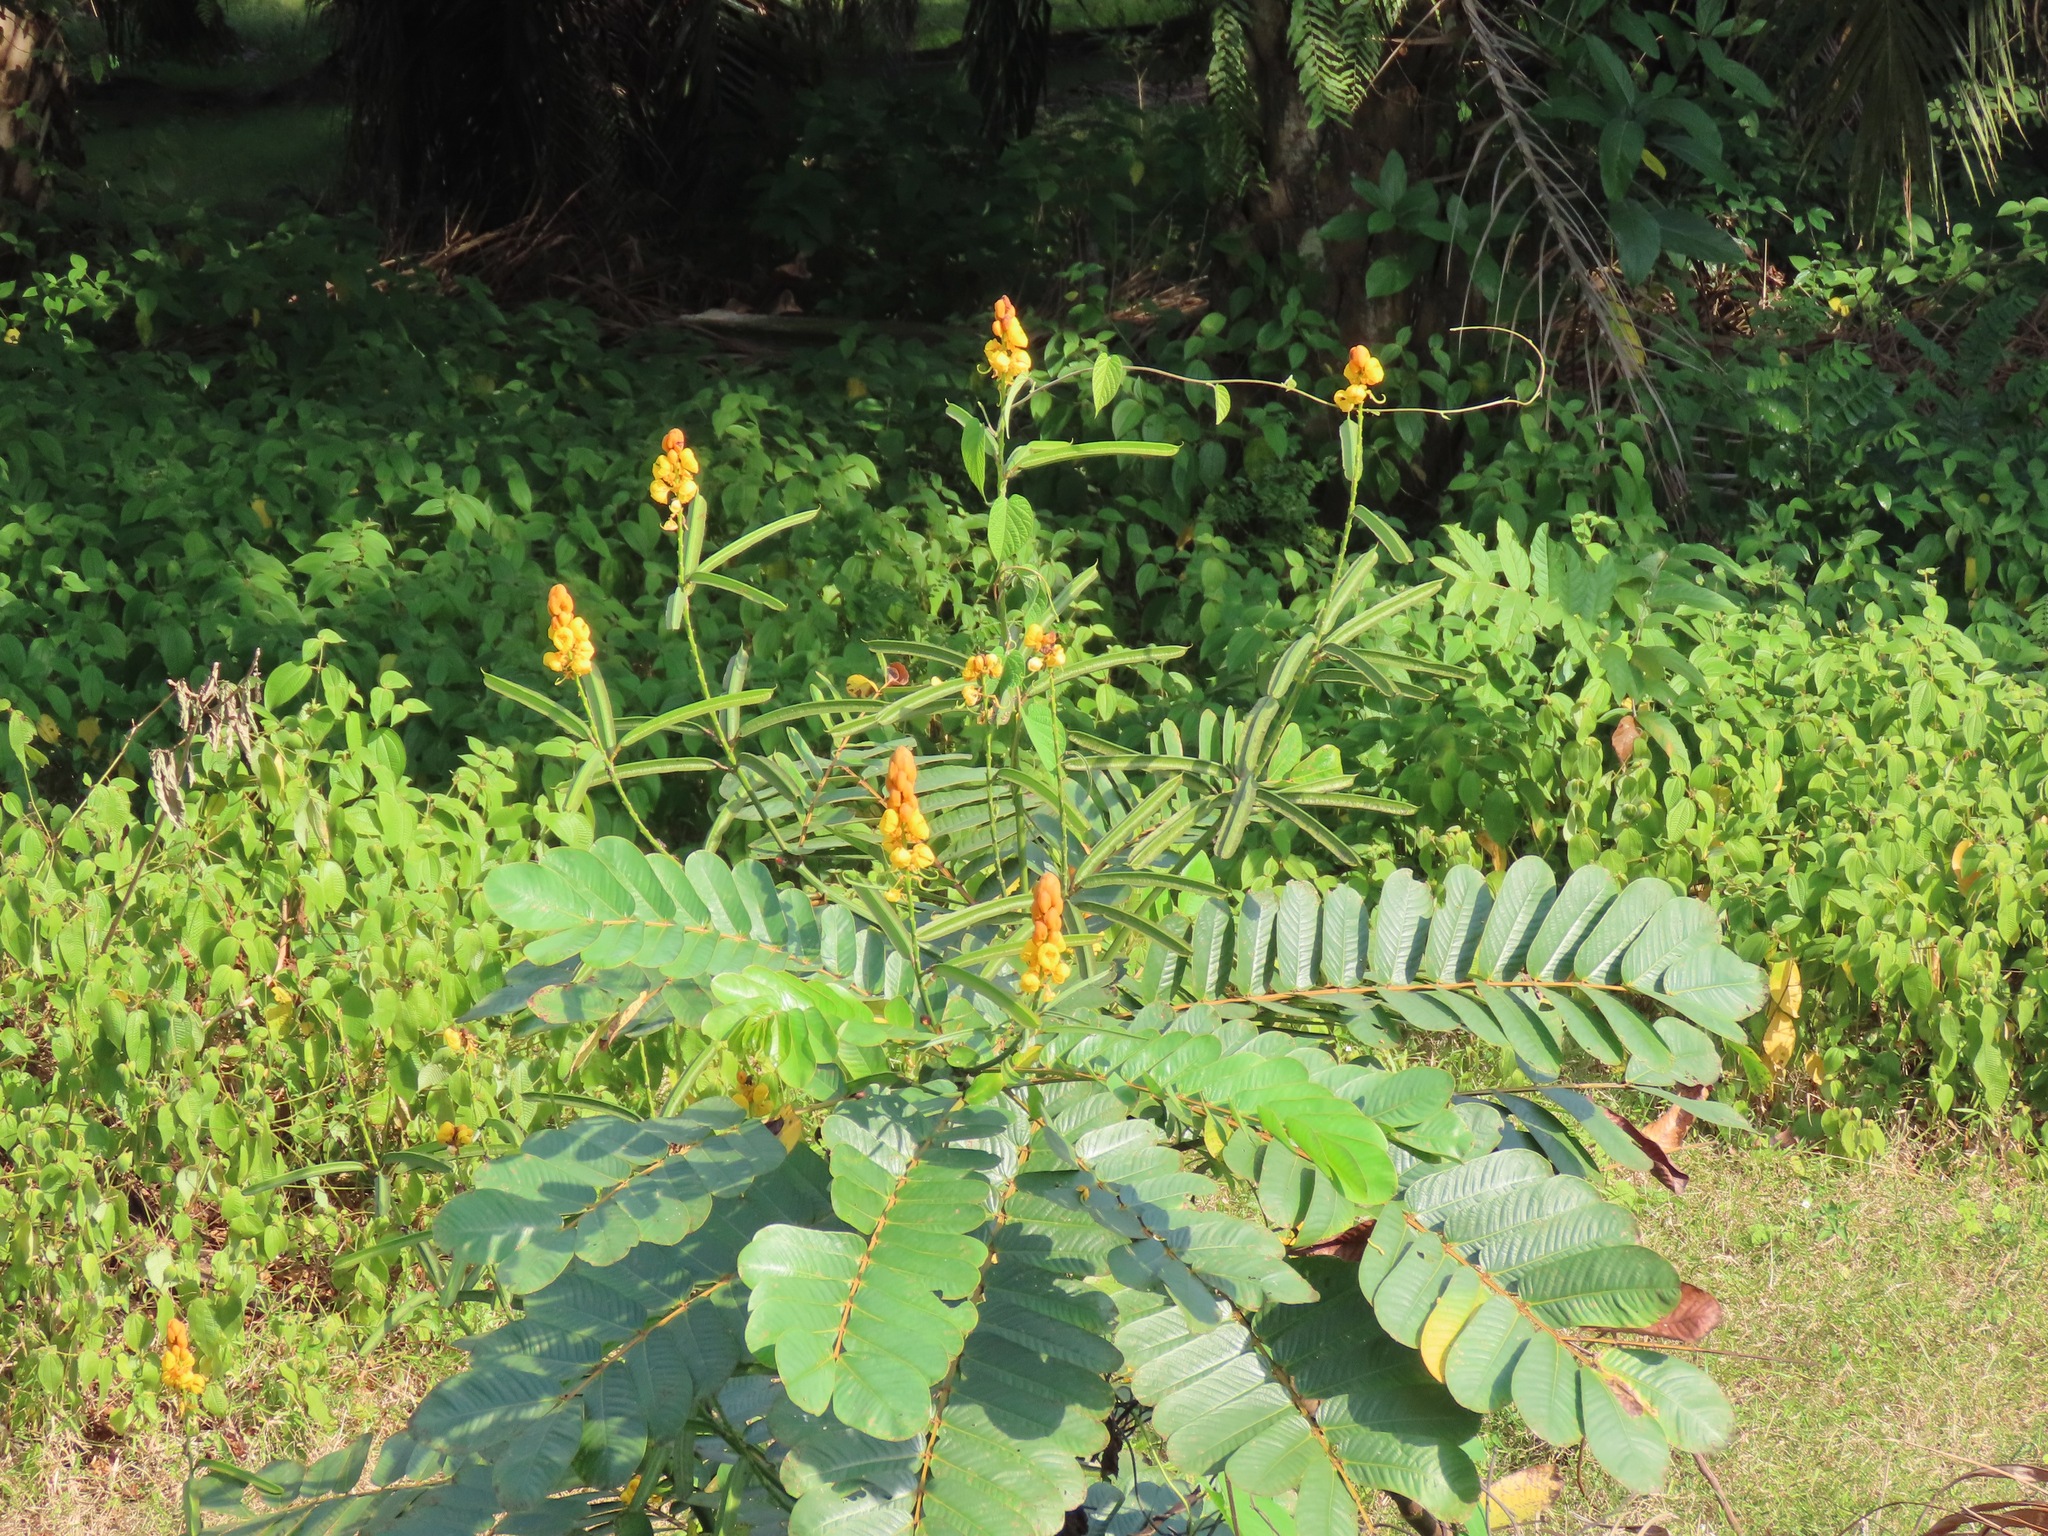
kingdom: Plantae
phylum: Tracheophyta
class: Magnoliopsida
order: Fabales
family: Fabaceae
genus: Senna
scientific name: Senna alata
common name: Emperor's candlesticks
